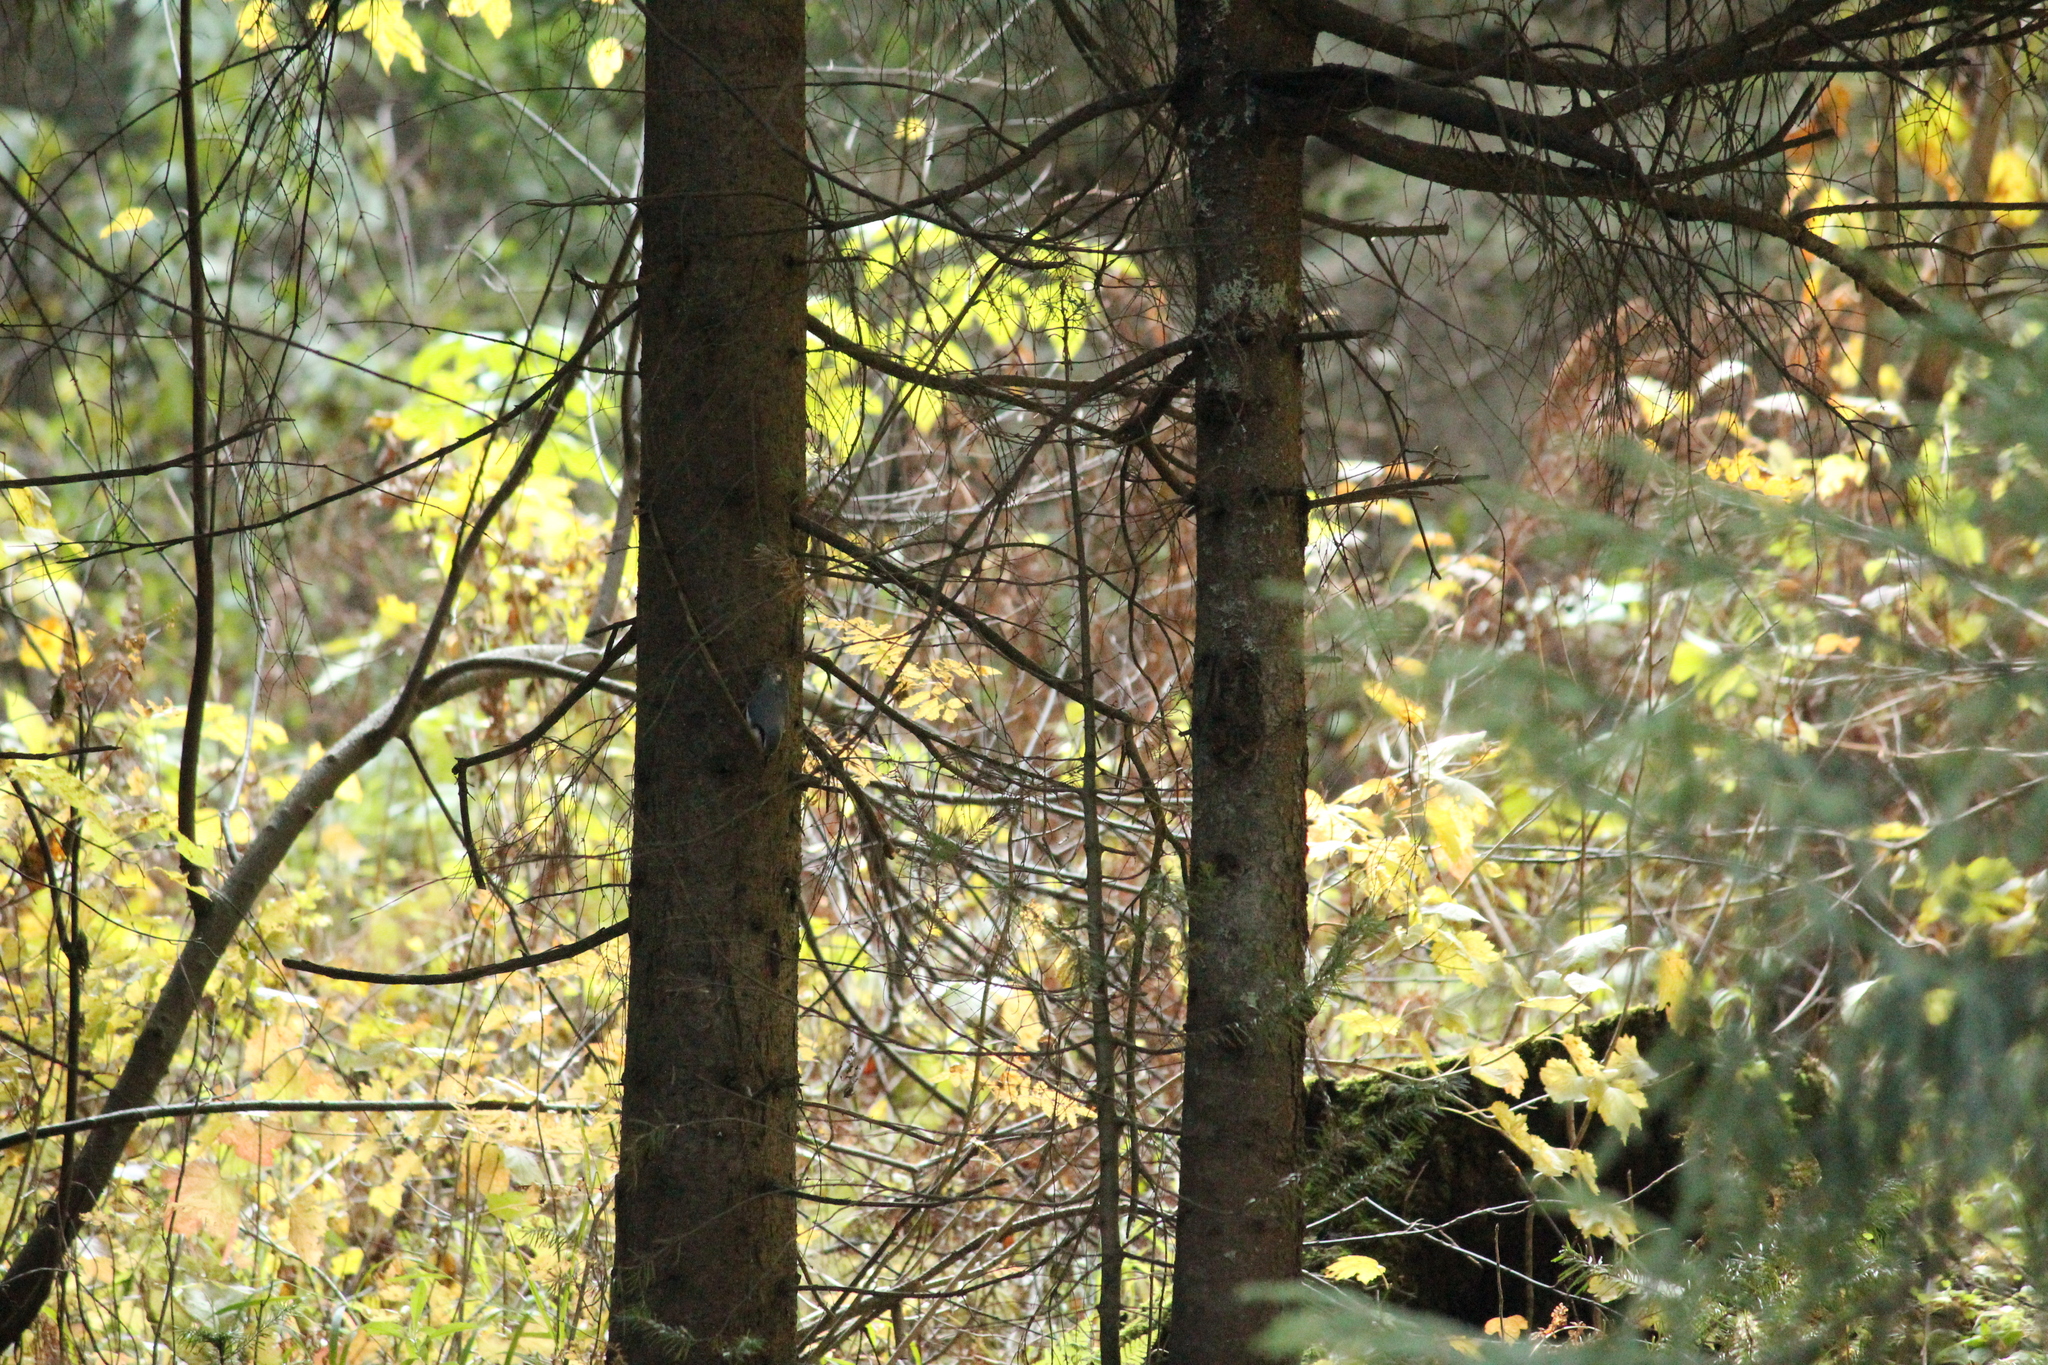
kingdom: Animalia
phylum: Chordata
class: Aves
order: Passeriformes
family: Sittidae
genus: Sitta
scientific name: Sitta europaea
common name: Eurasian nuthatch
